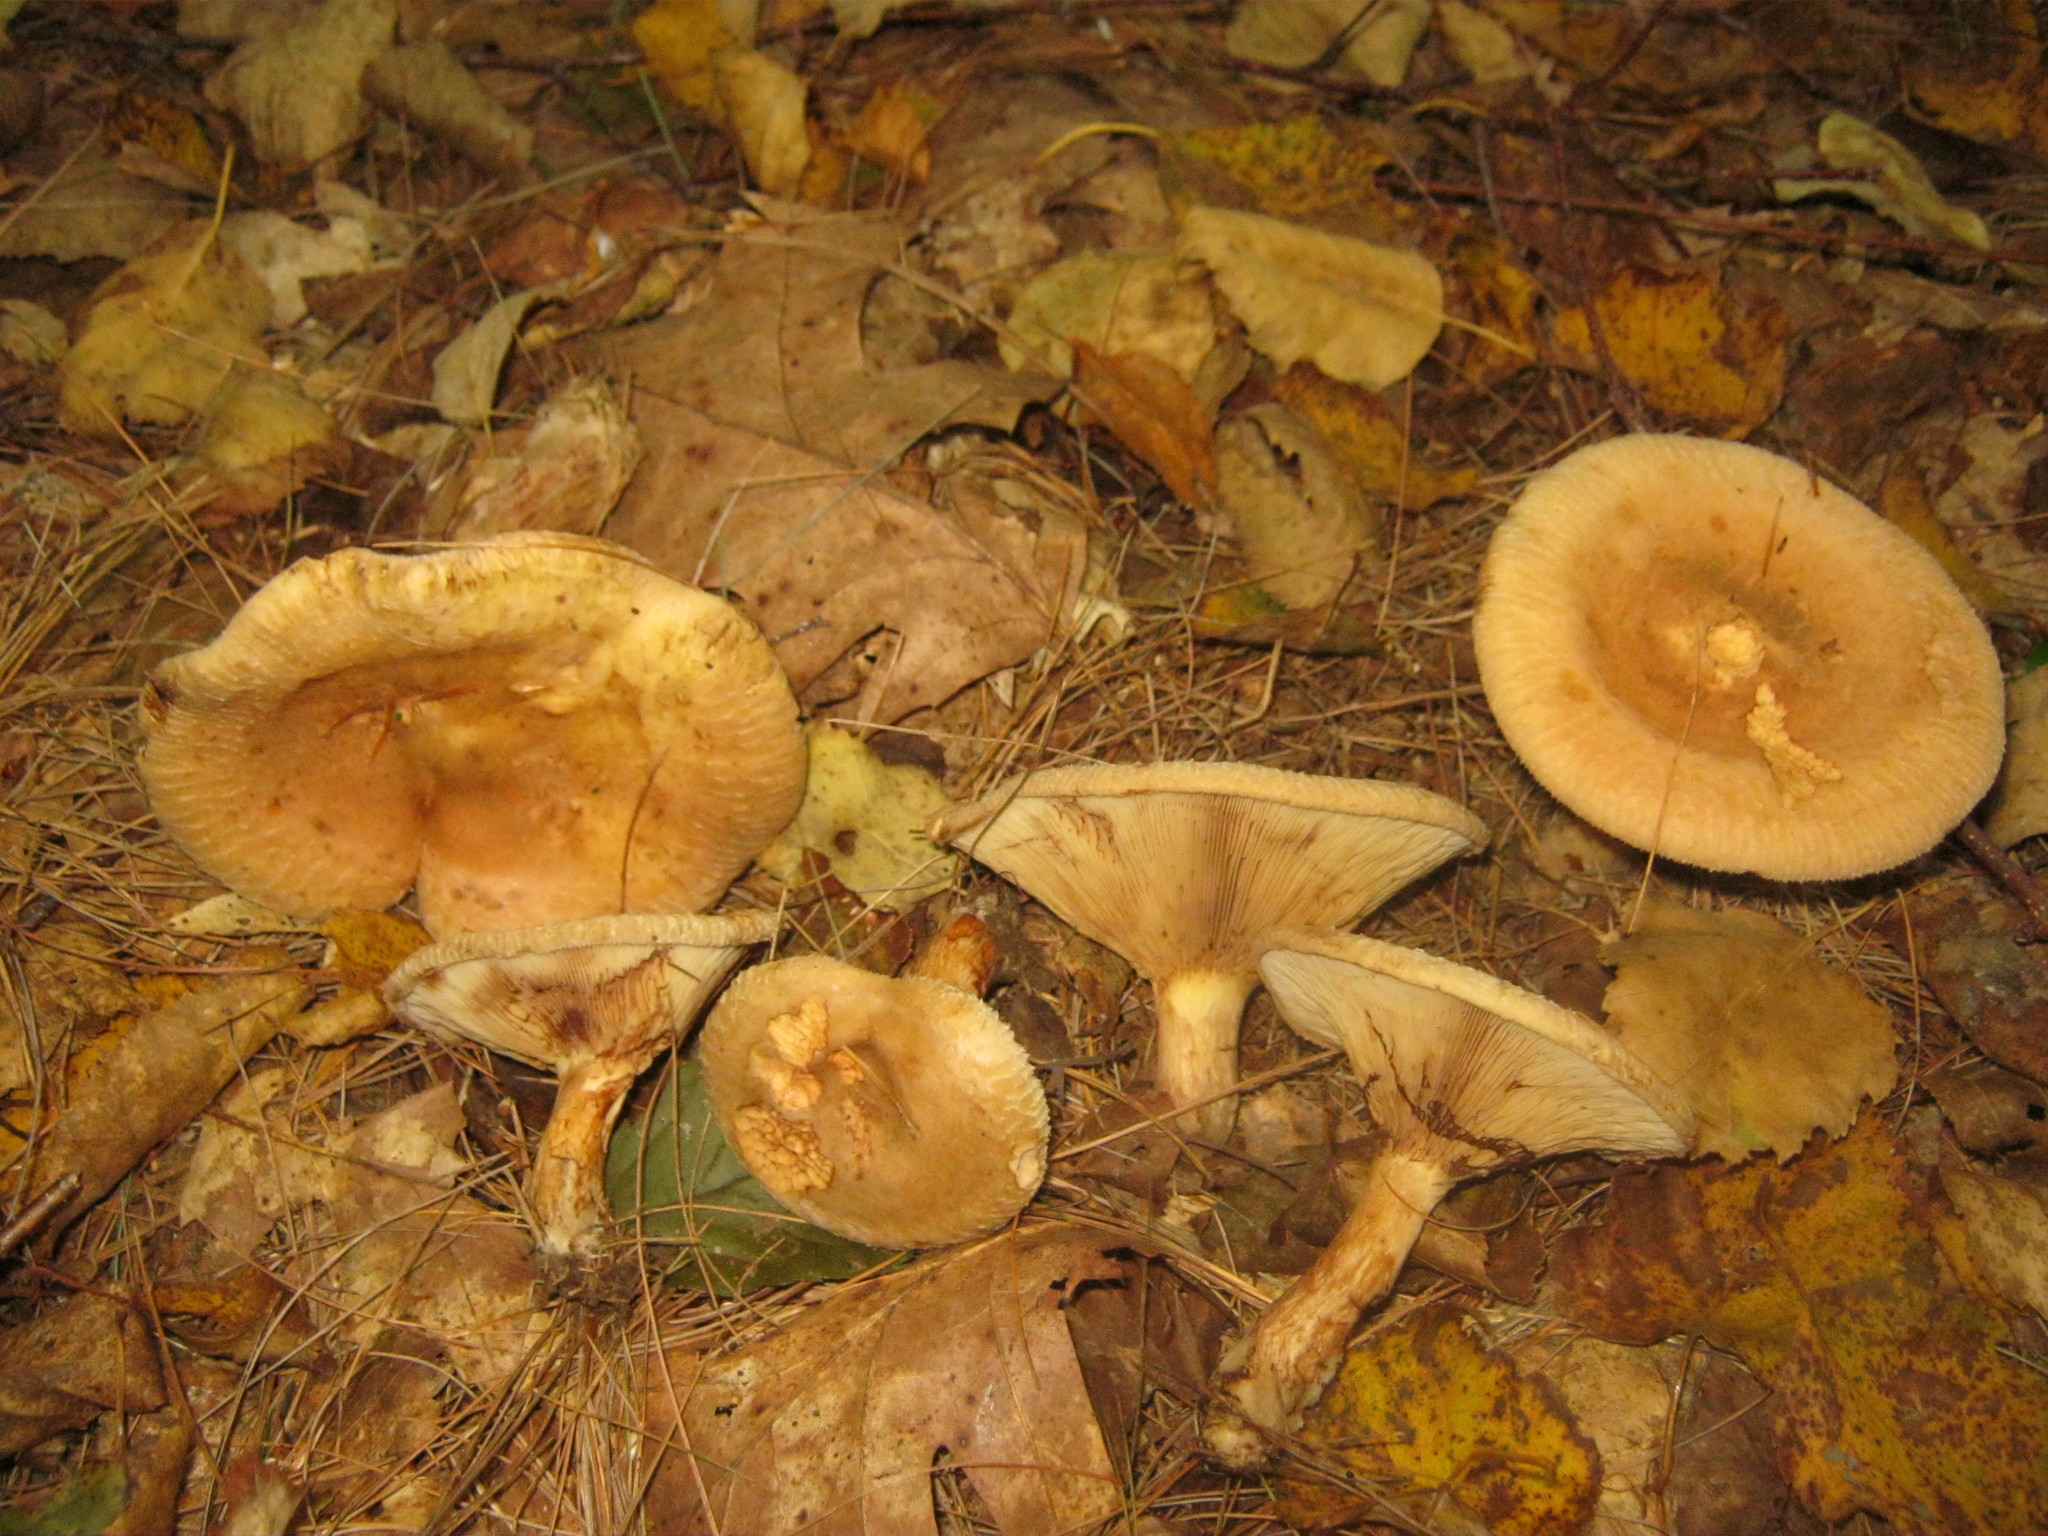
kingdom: Fungi
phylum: Basidiomycota
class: Agaricomycetes
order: Boletales
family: Paxillaceae
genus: Paxillus
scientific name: Paxillus involutus
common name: Brown roll rim
